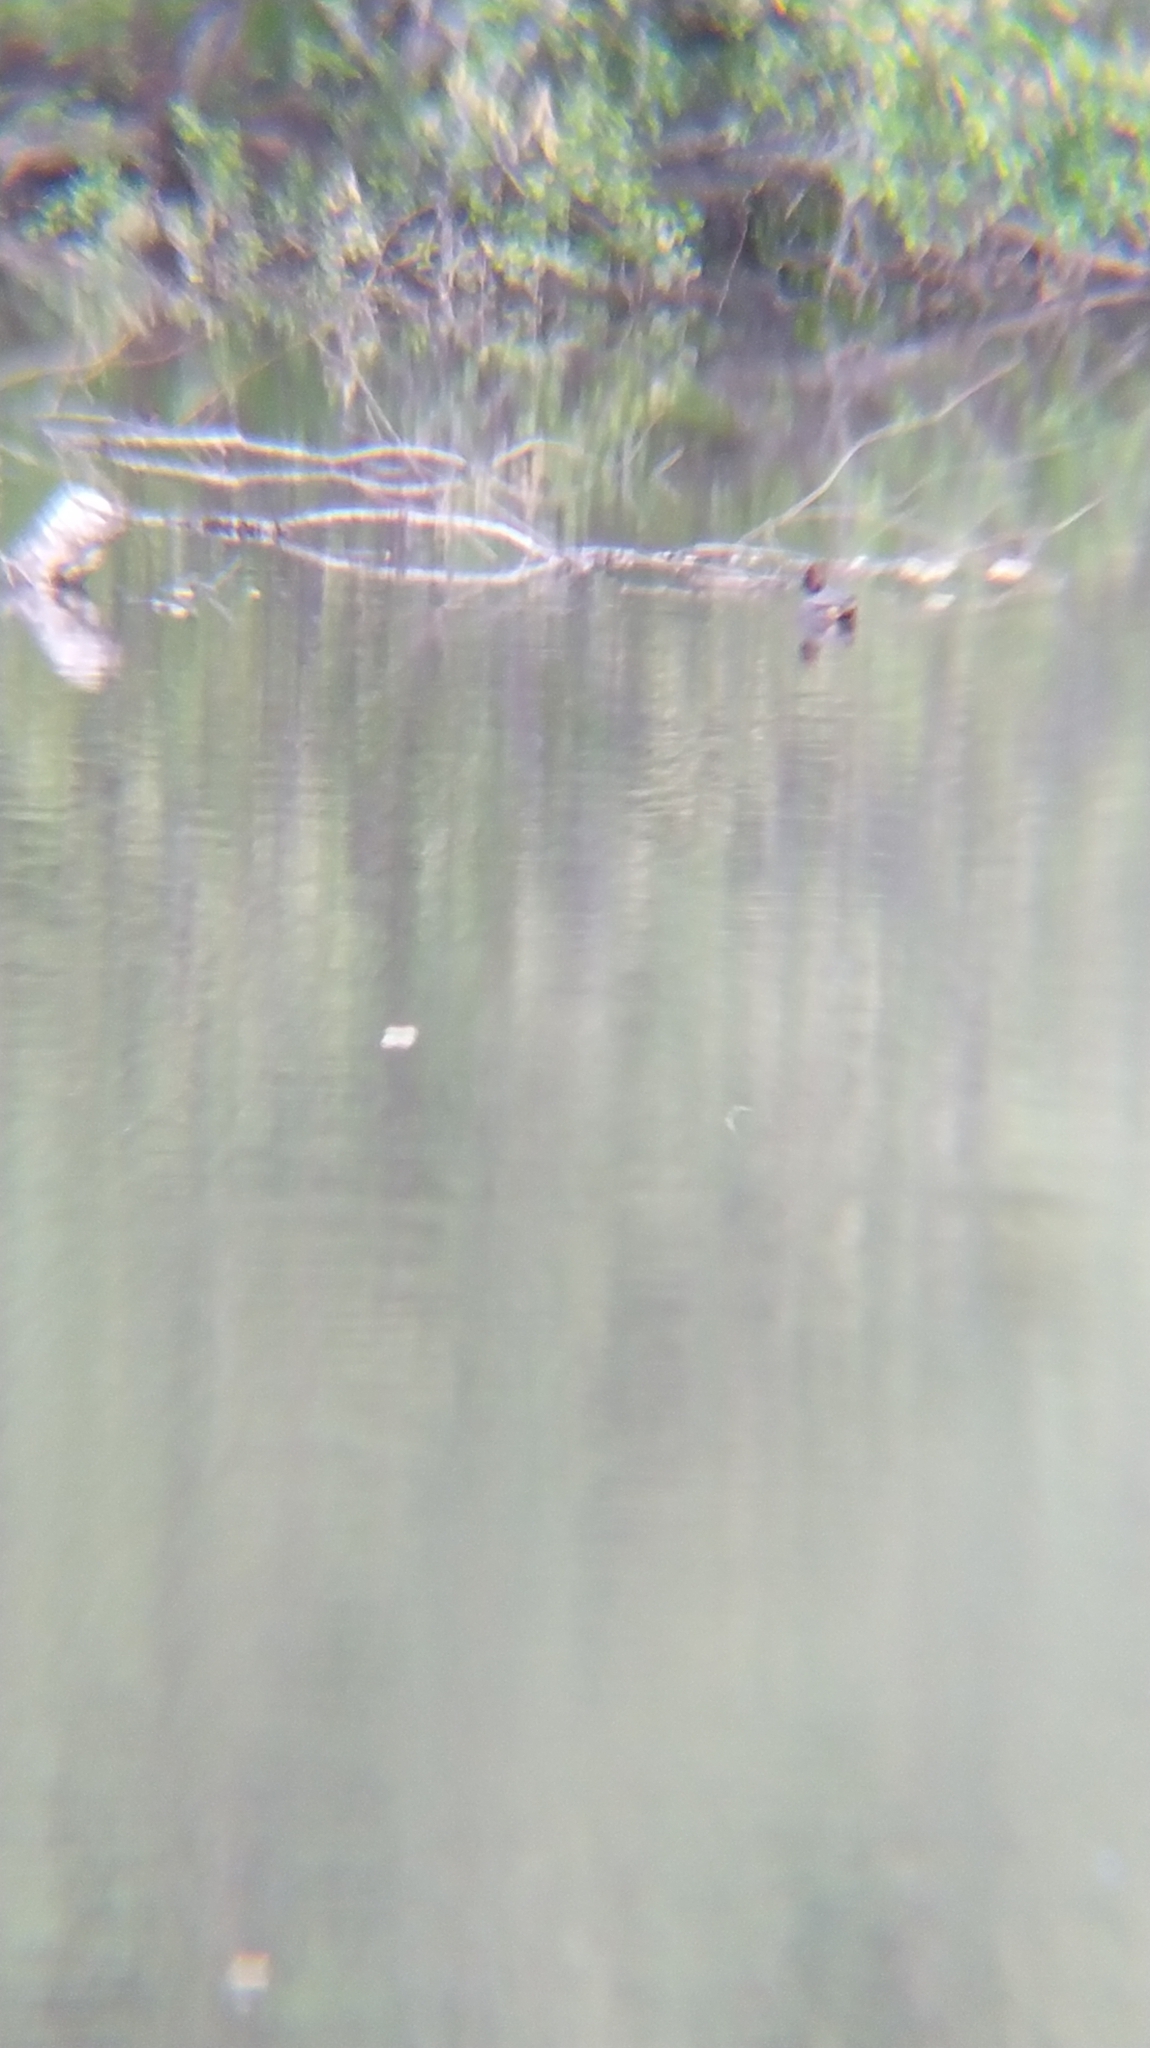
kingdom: Animalia
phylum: Chordata
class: Aves
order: Anseriformes
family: Anatidae
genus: Anas
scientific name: Anas crecca
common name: Eurasian teal
